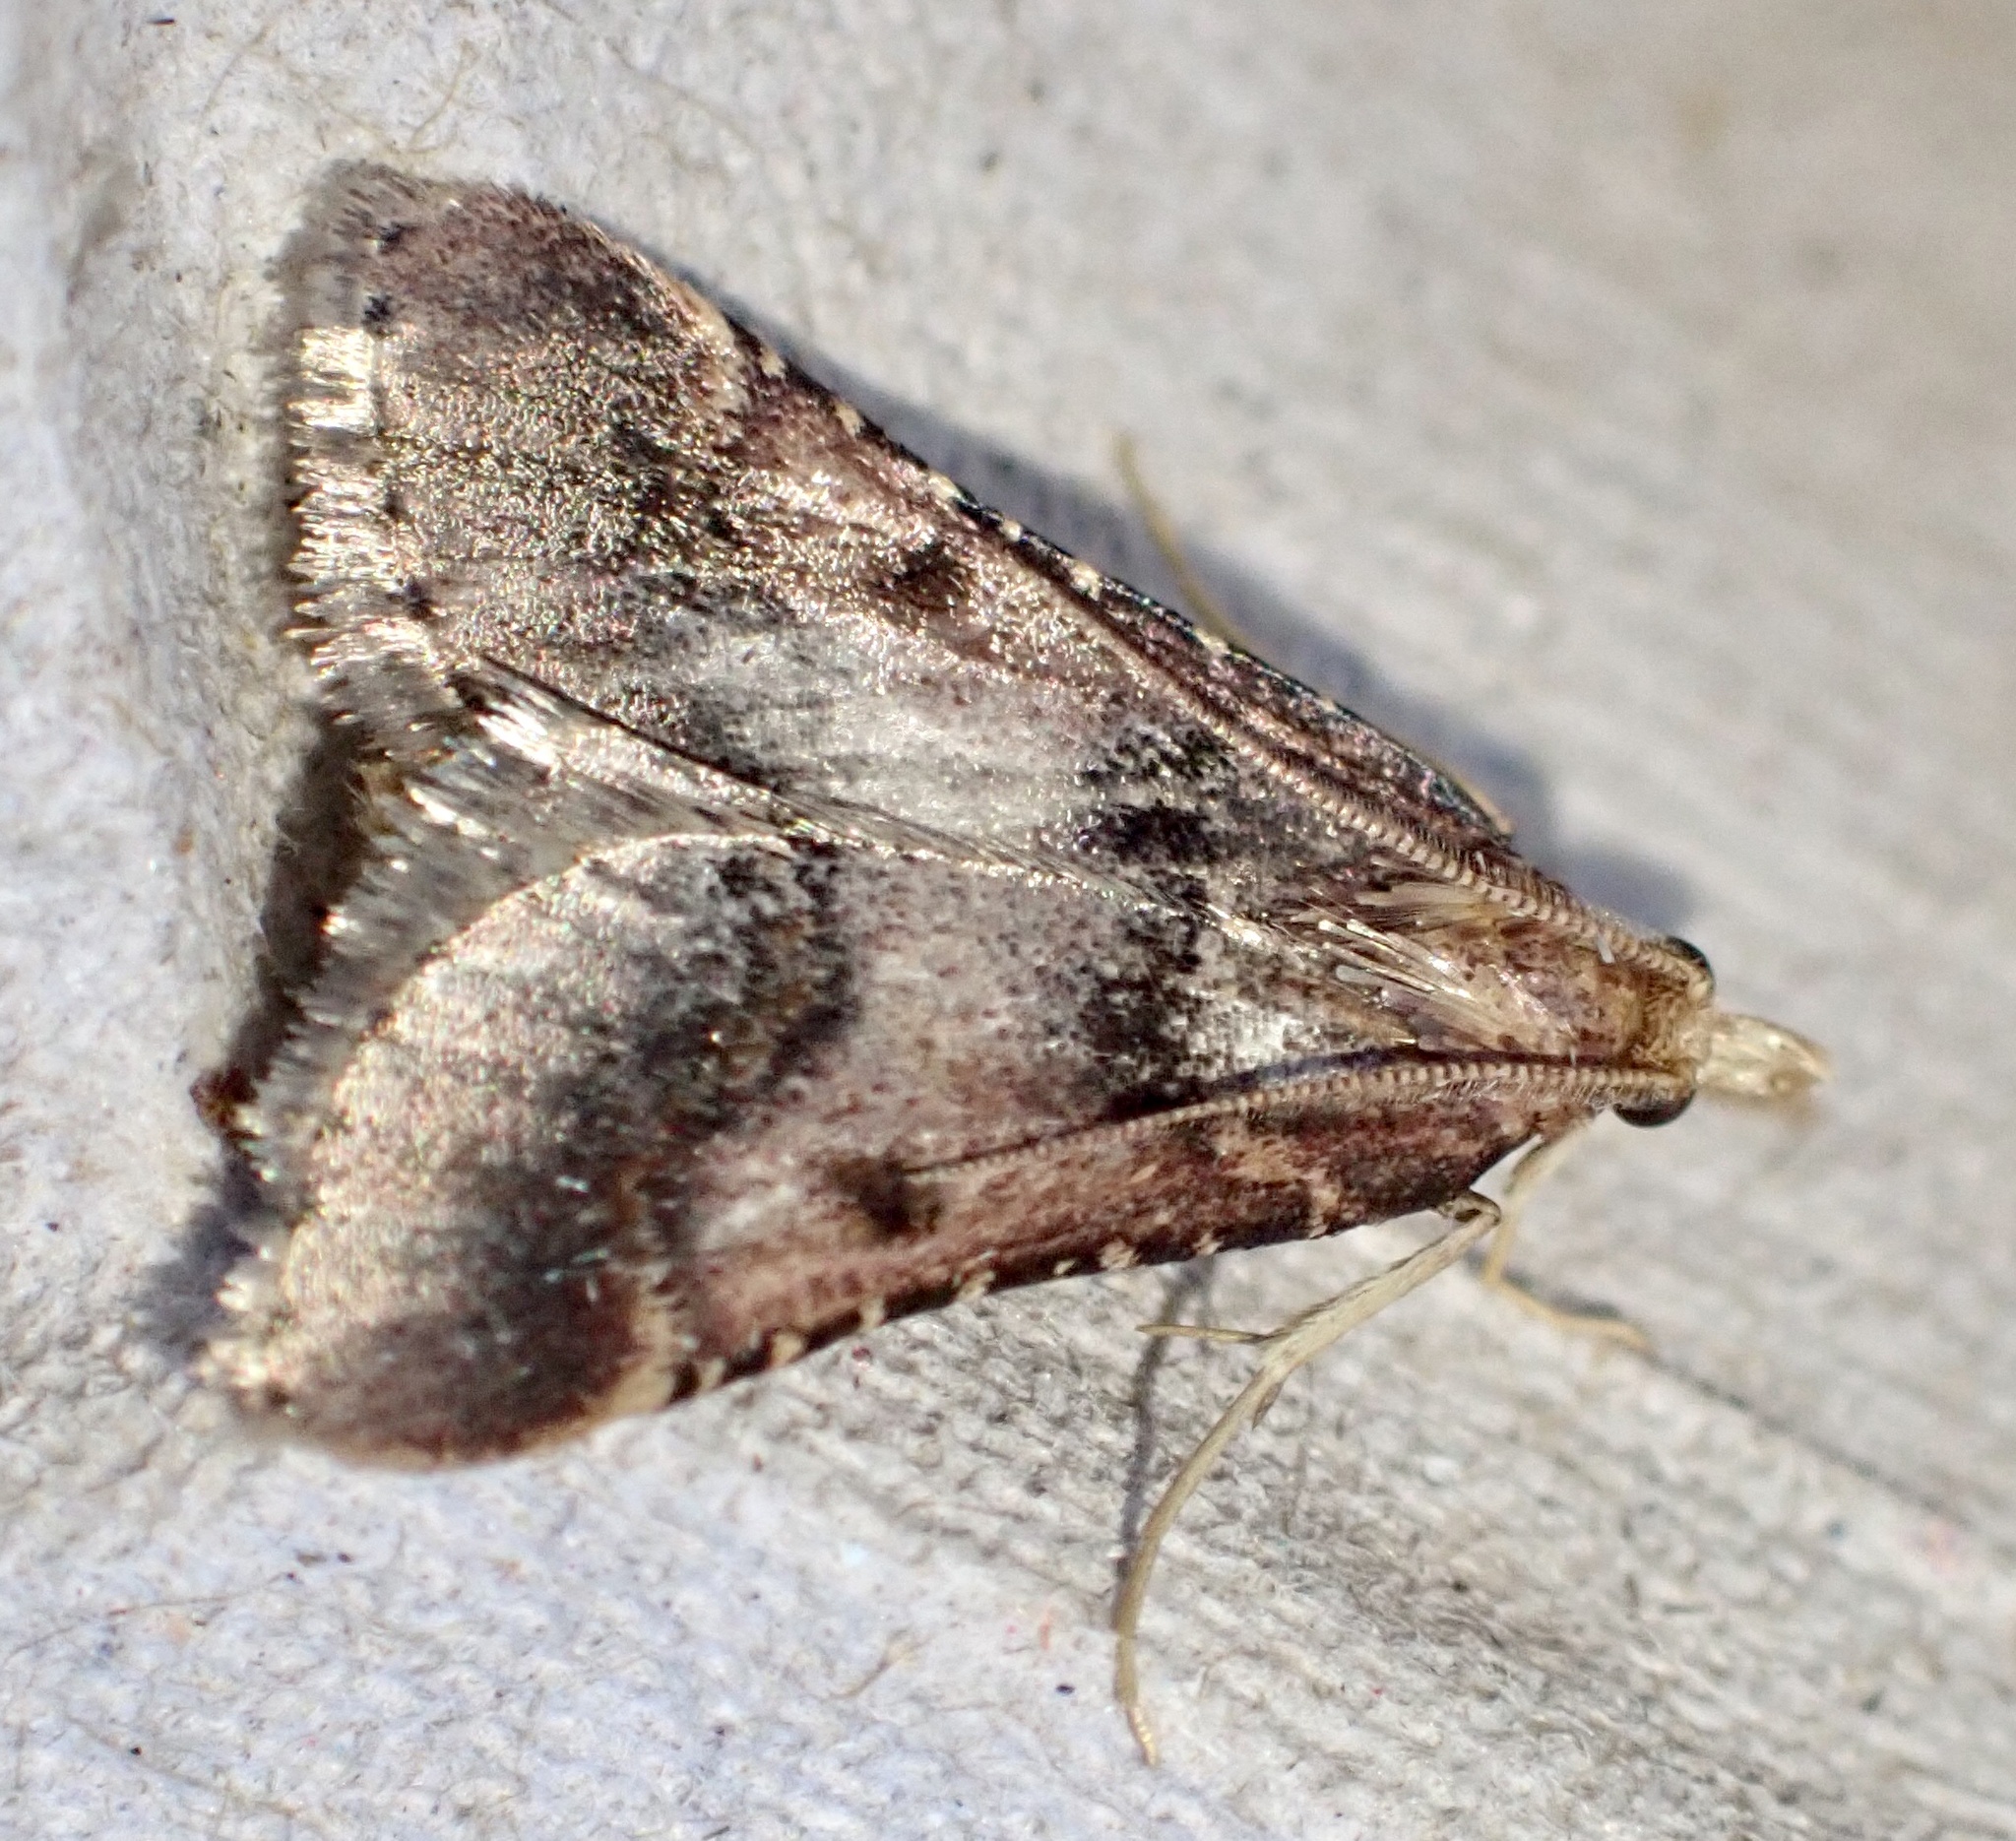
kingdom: Animalia
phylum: Arthropoda
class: Insecta
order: Lepidoptera
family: Pyralidae
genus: Stemmatophora
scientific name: Stemmatophora brunnealis
